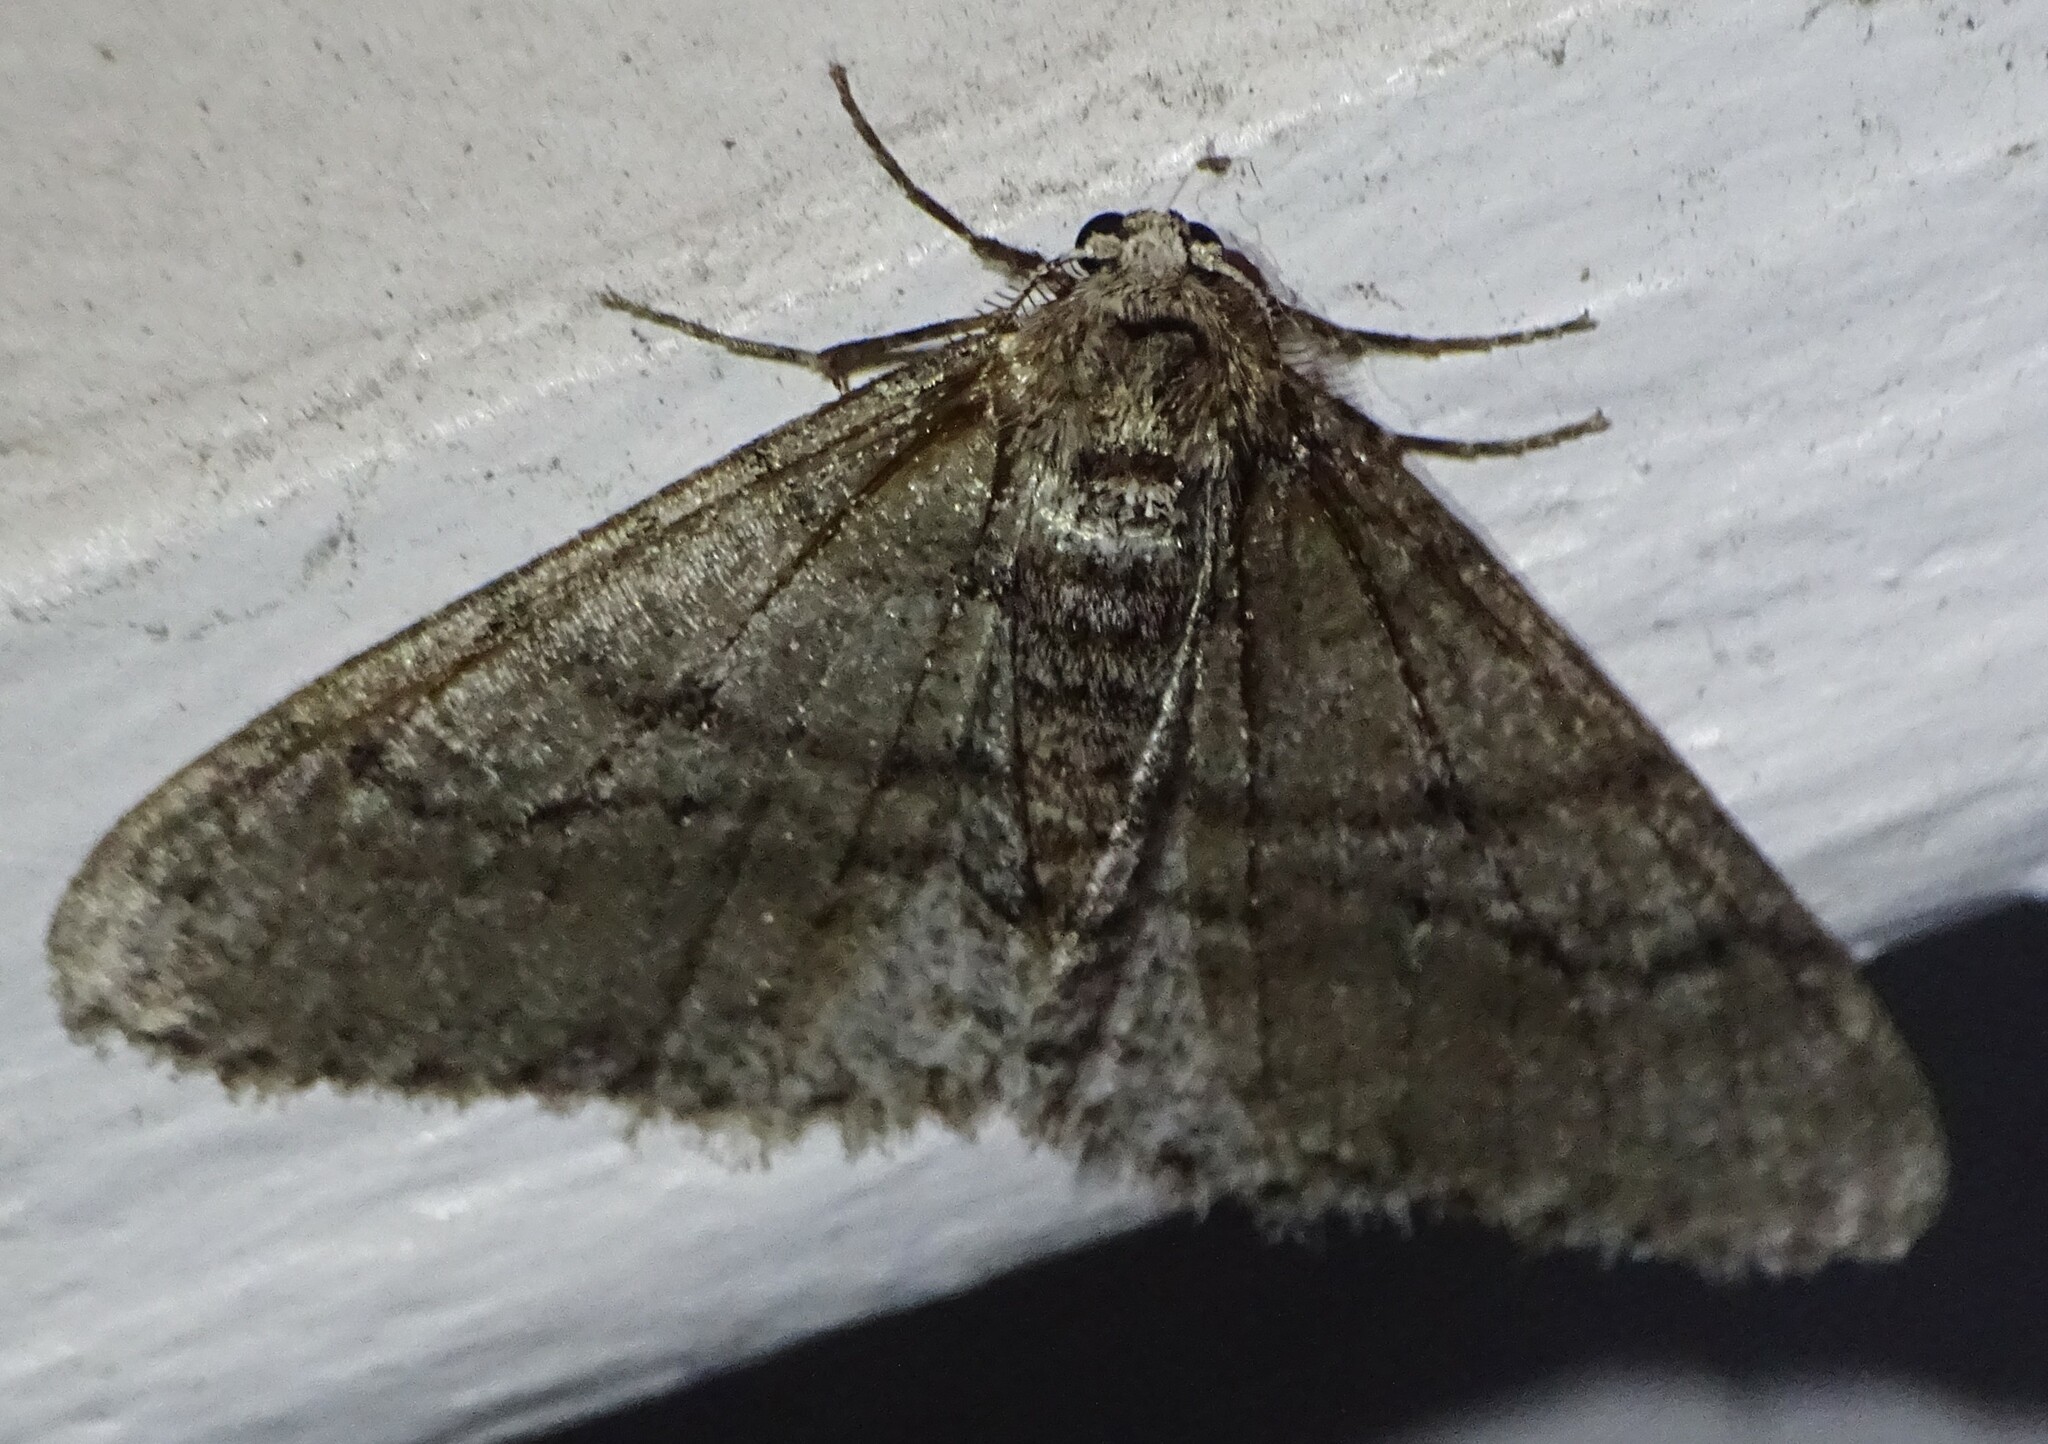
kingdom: Animalia
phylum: Arthropoda
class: Insecta
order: Lepidoptera
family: Geometridae
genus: Phigalia
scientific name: Phigalia titea
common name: Spiny looper
